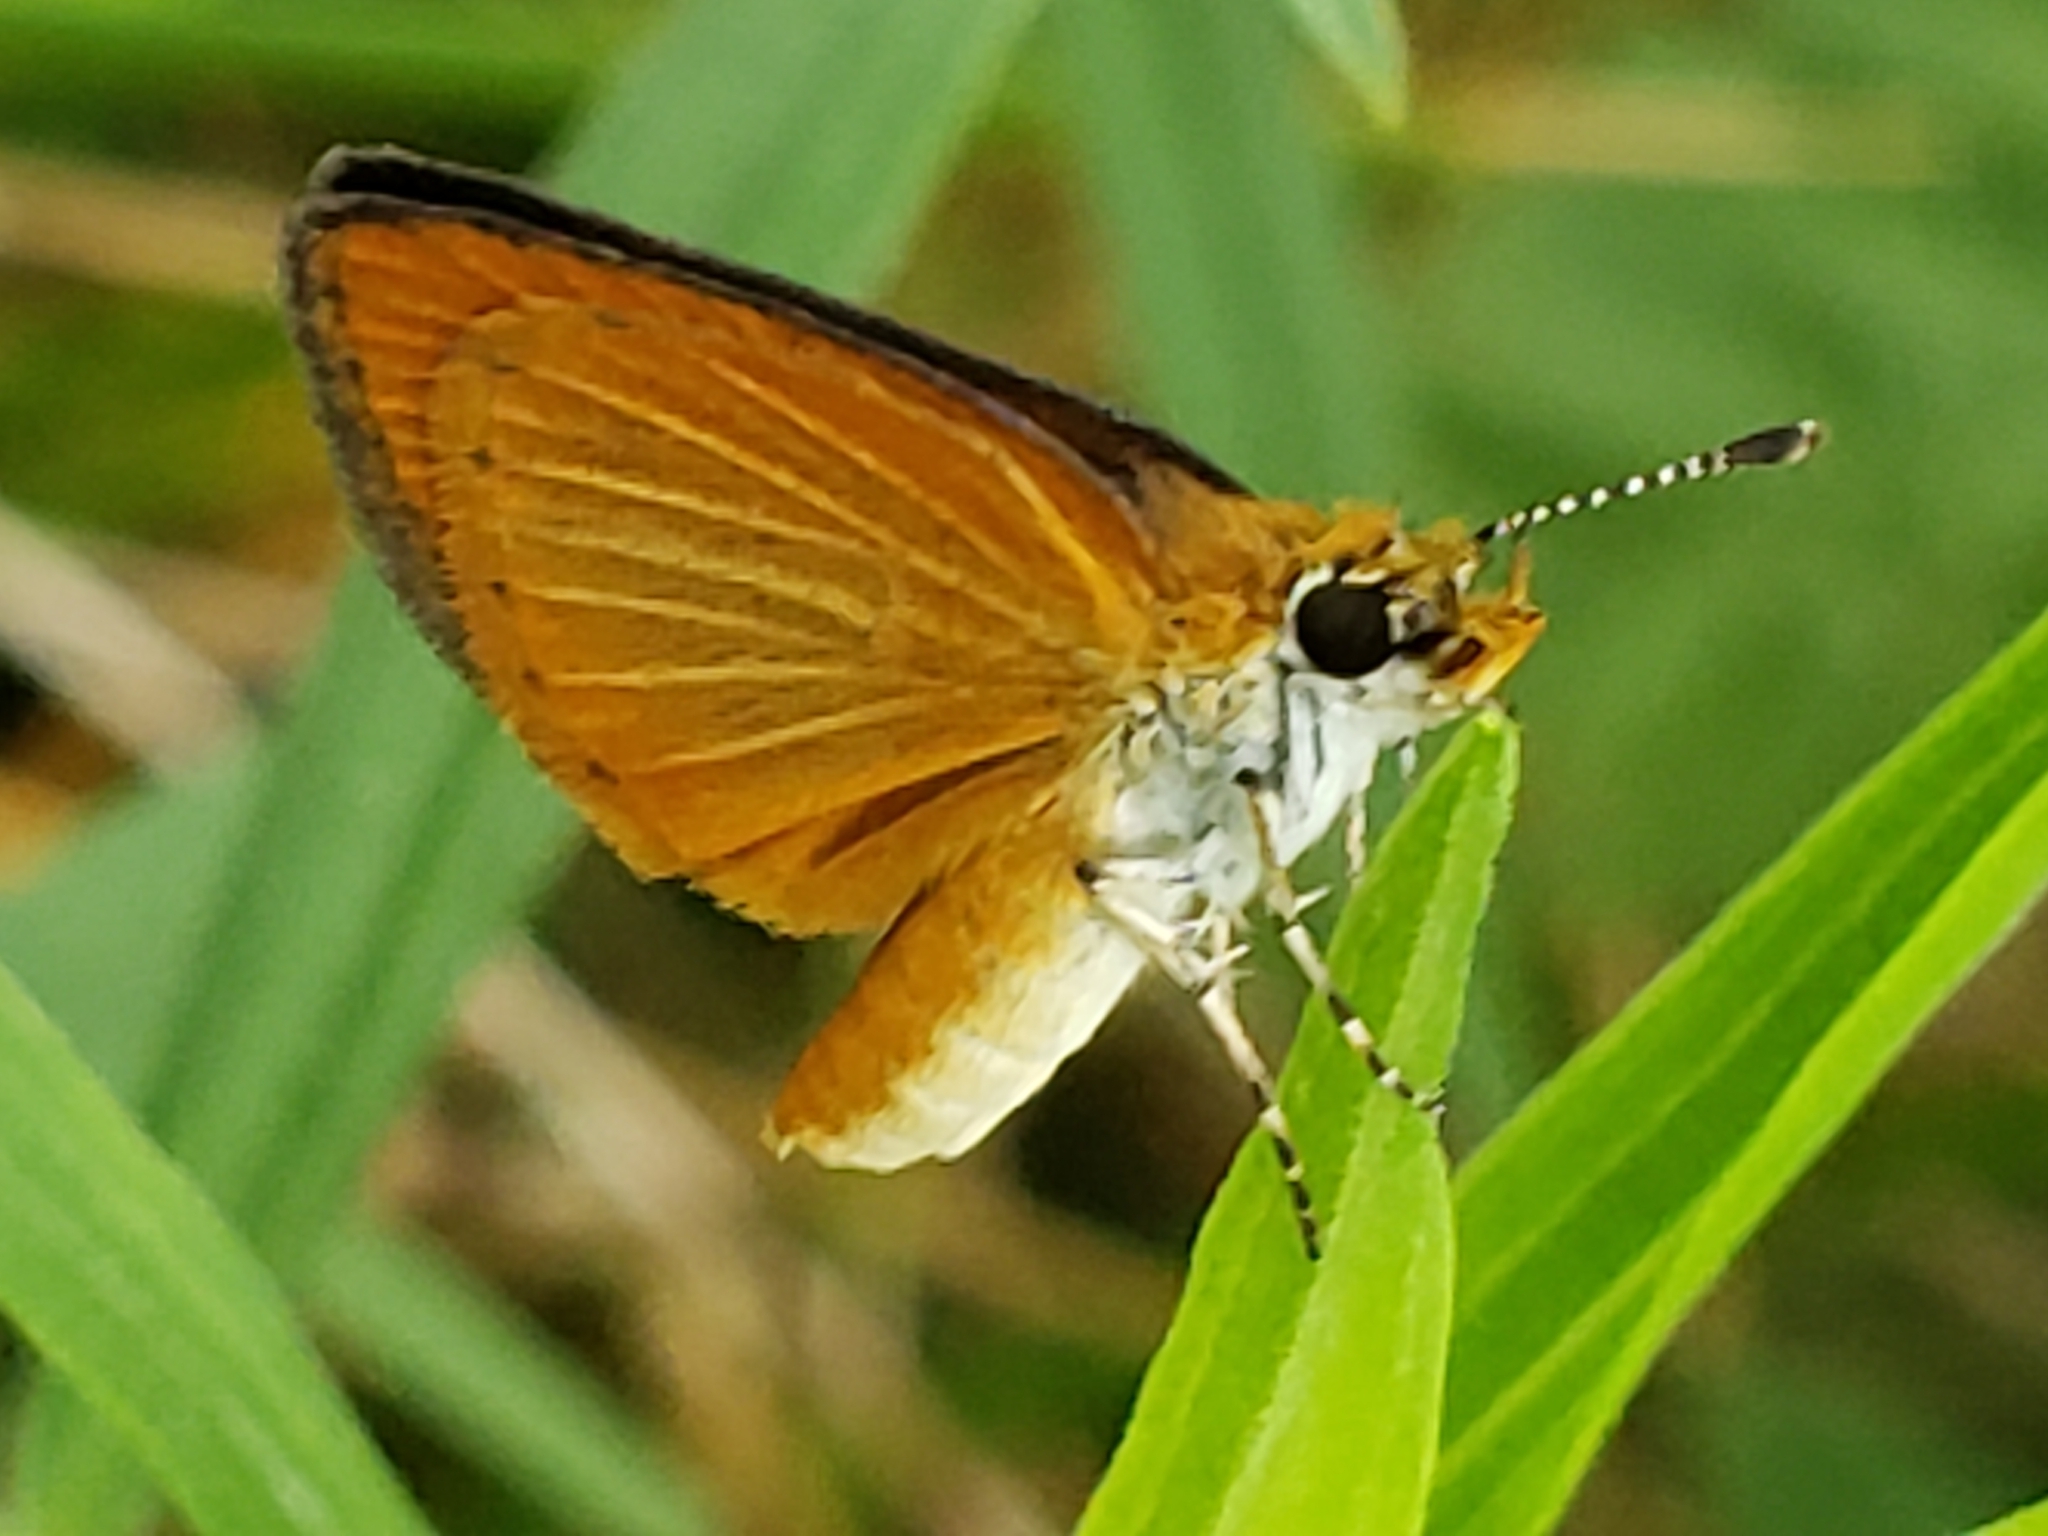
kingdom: Animalia
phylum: Arthropoda
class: Insecta
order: Lepidoptera
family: Hesperiidae
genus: Ancyloxypha
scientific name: Ancyloxypha numitor
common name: Least skipper
